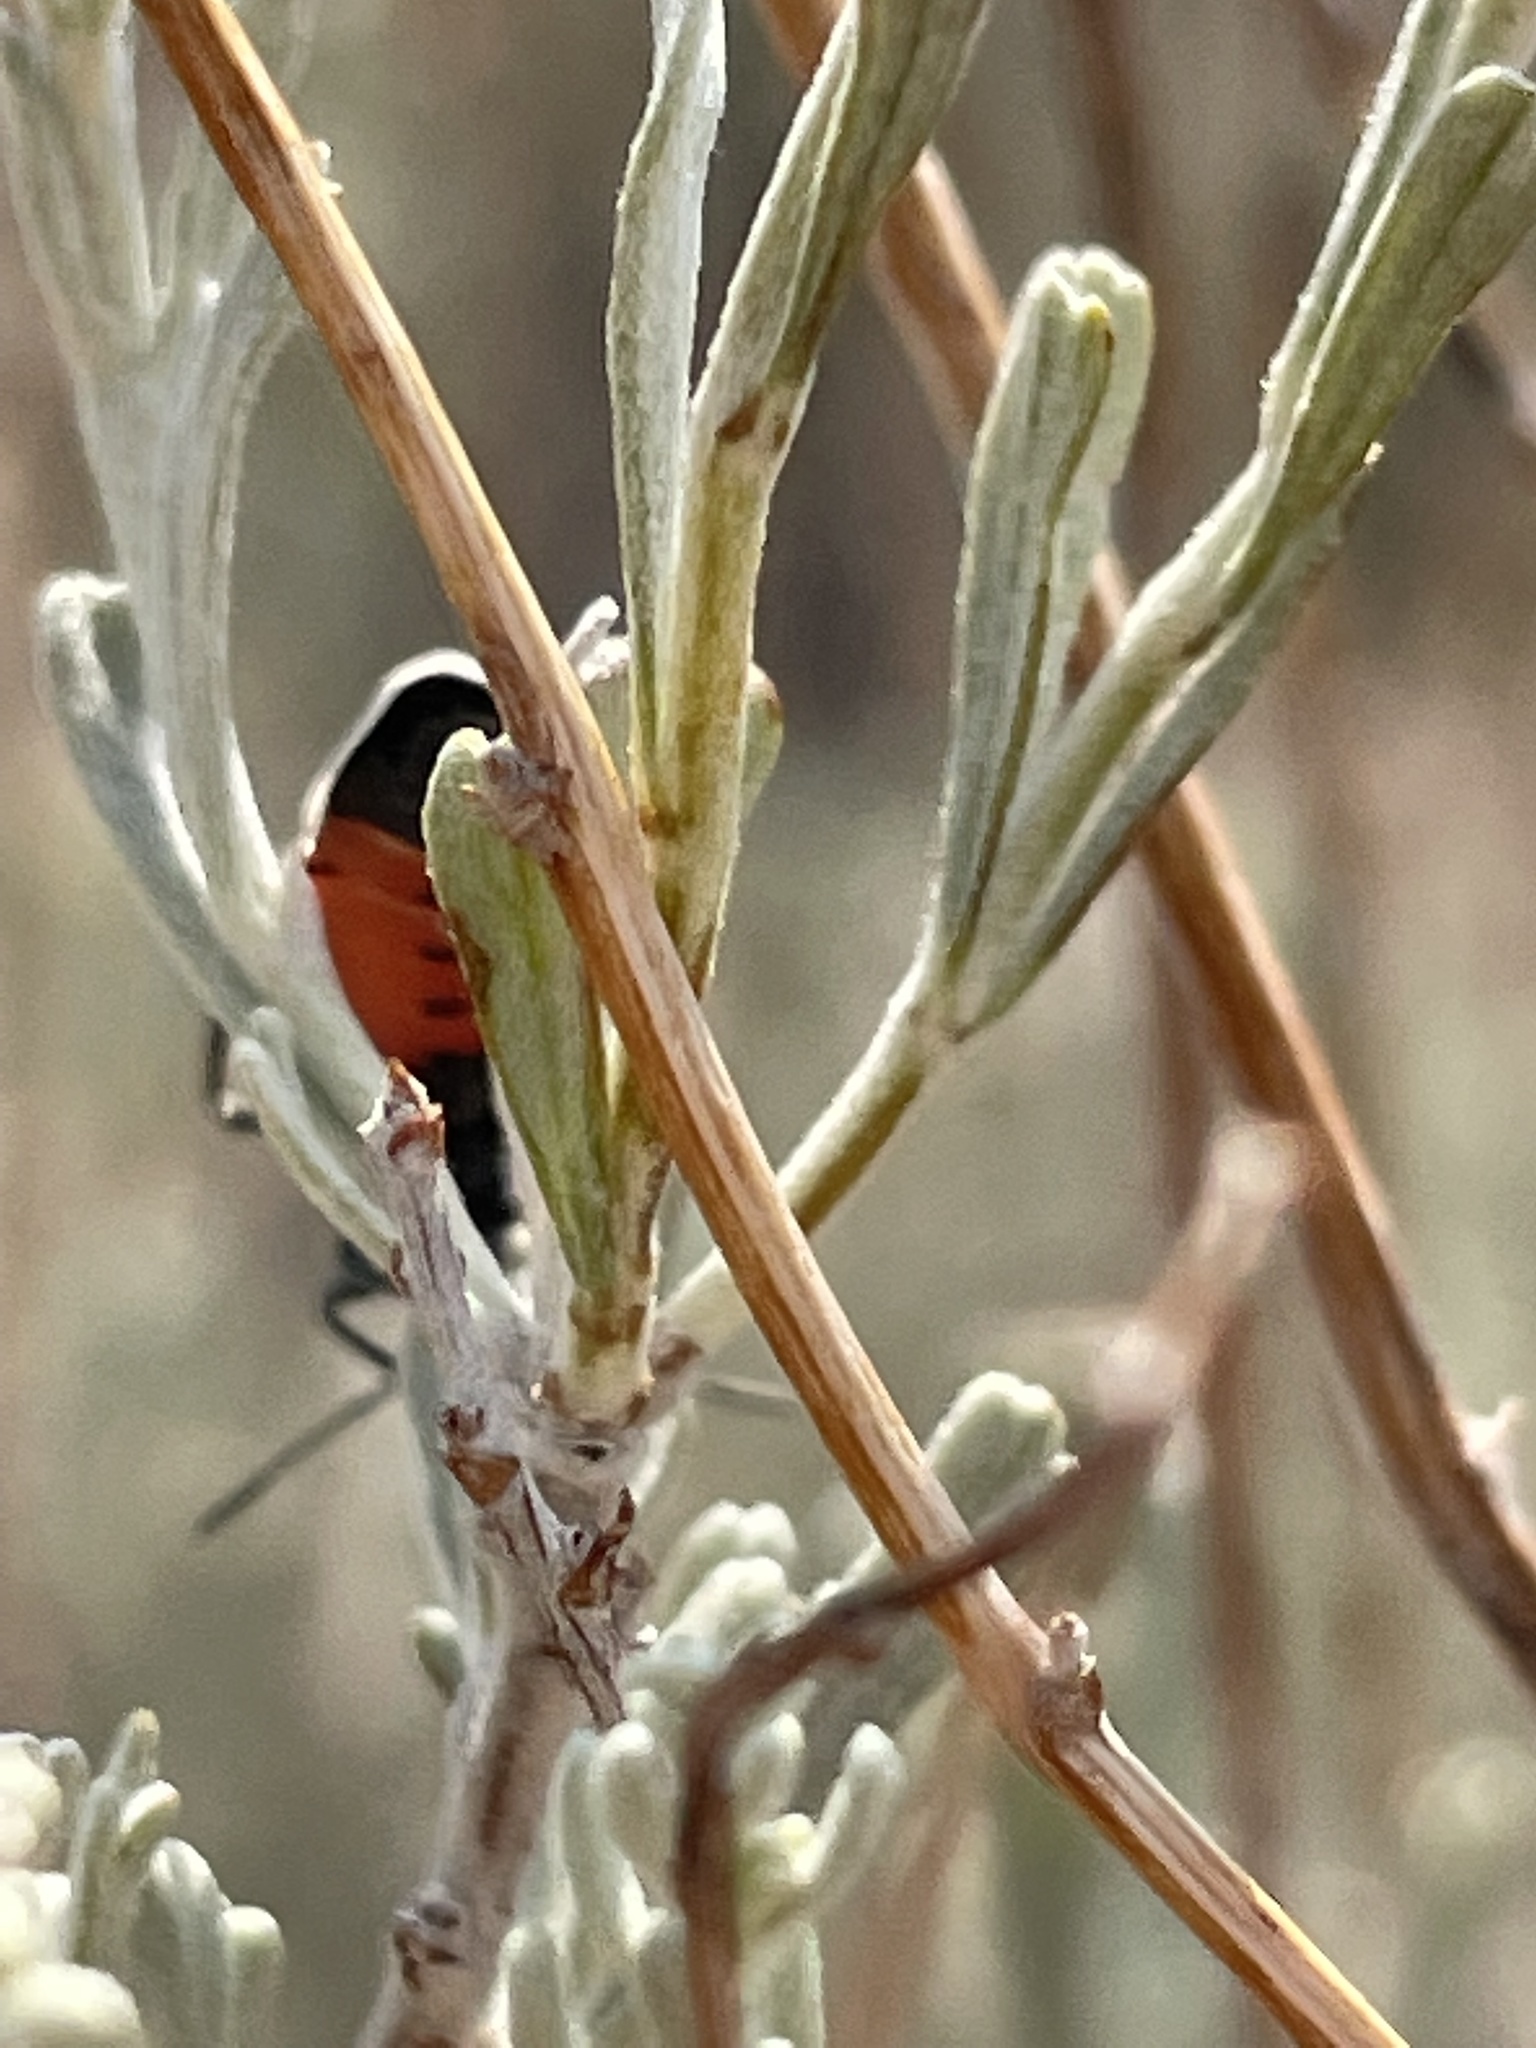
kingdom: Animalia
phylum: Arthropoda
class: Insecta
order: Hemiptera
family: Lygaeidae
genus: Lygaeus
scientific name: Lygaeus kalmii
